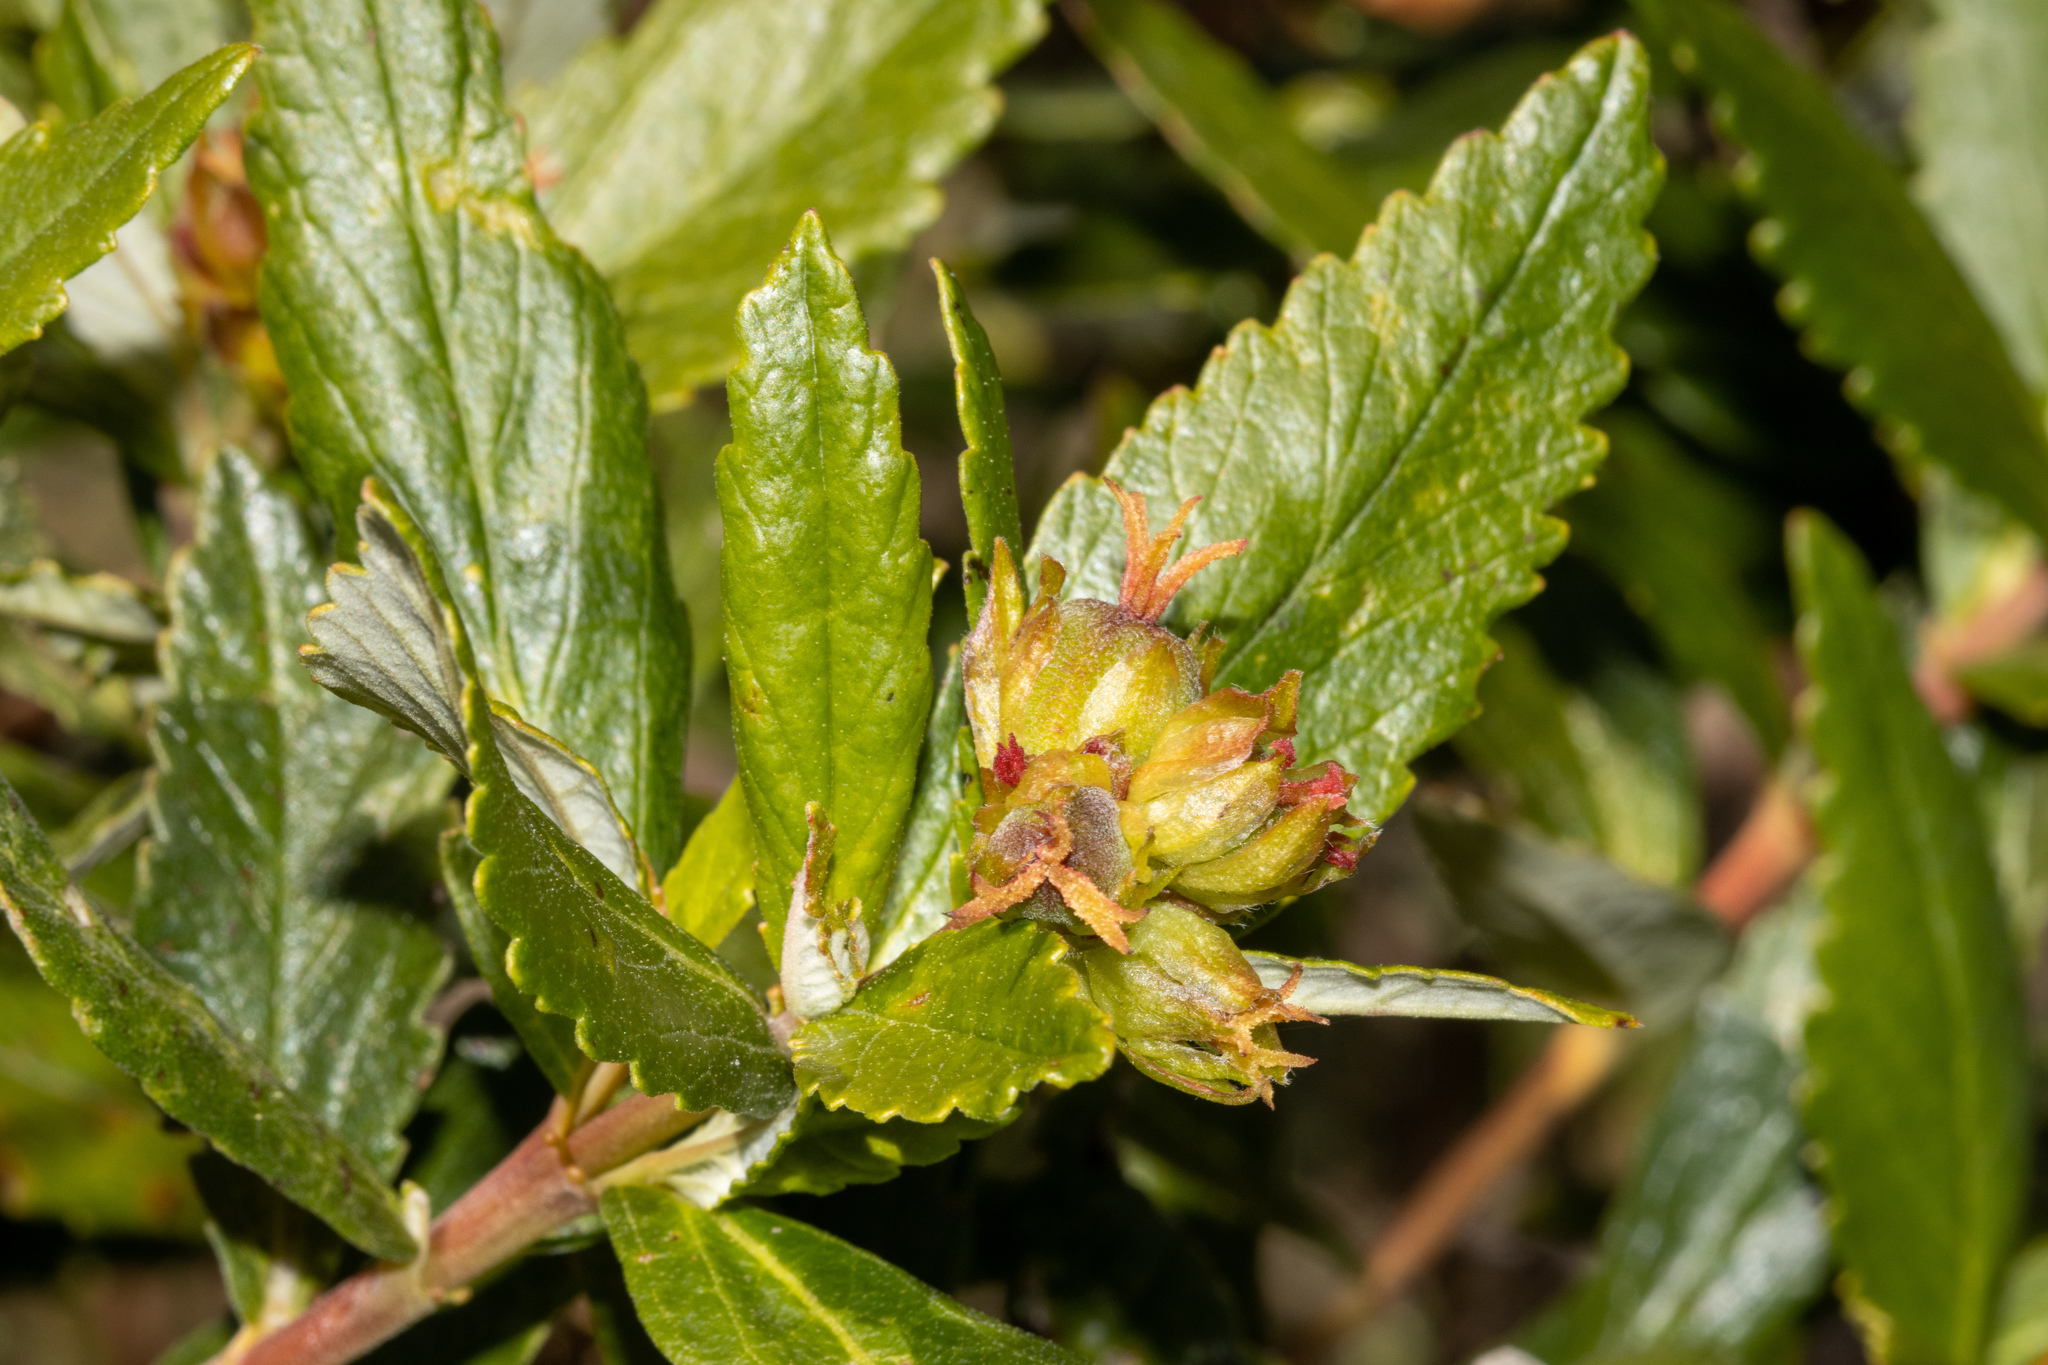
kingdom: Plantae
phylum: Tracheophyta
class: Magnoliopsida
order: Malpighiales
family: Euphorbiaceae
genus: Adriana
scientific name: Adriana quadripartita
